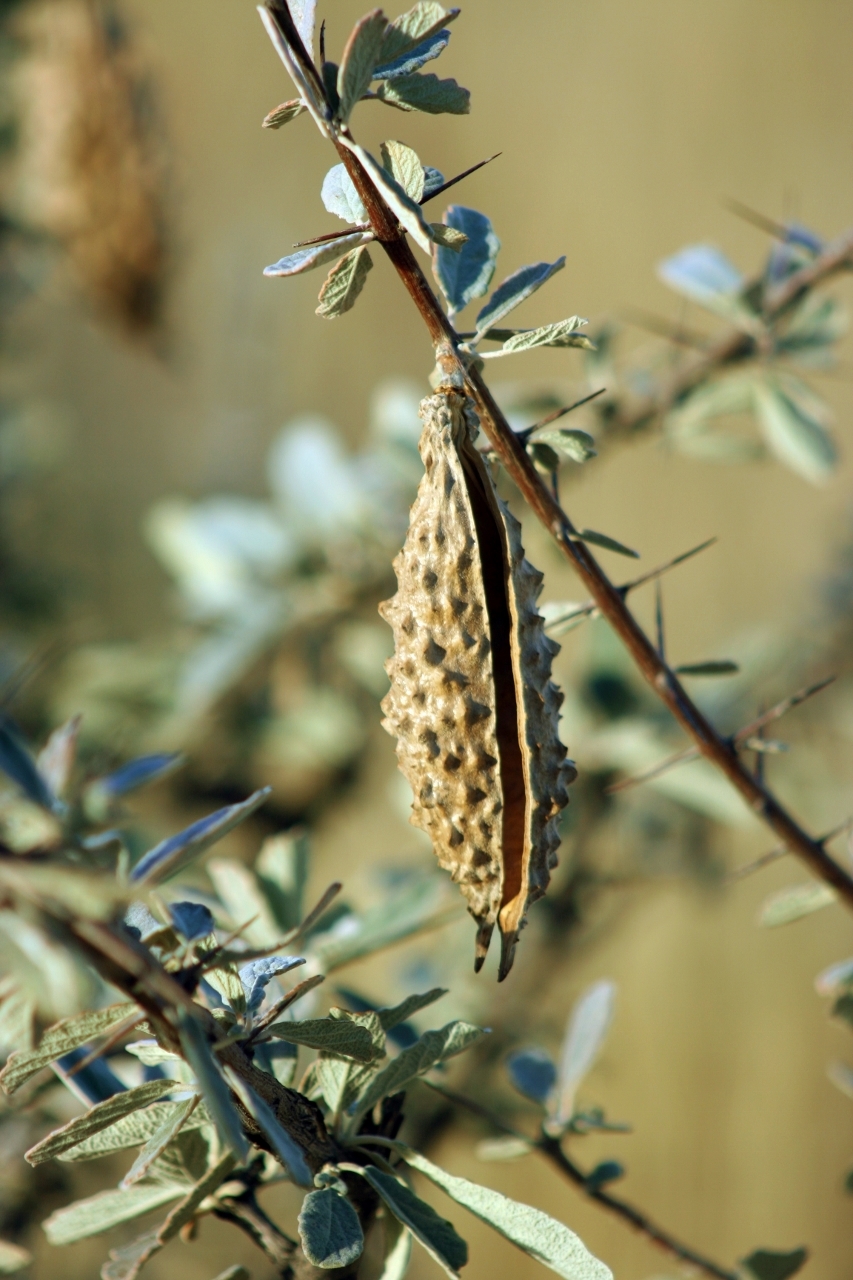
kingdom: Plantae
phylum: Tracheophyta
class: Magnoliopsida
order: Lamiales
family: Bignoniaceae
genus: Catophractes
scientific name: Catophractes alexandri
